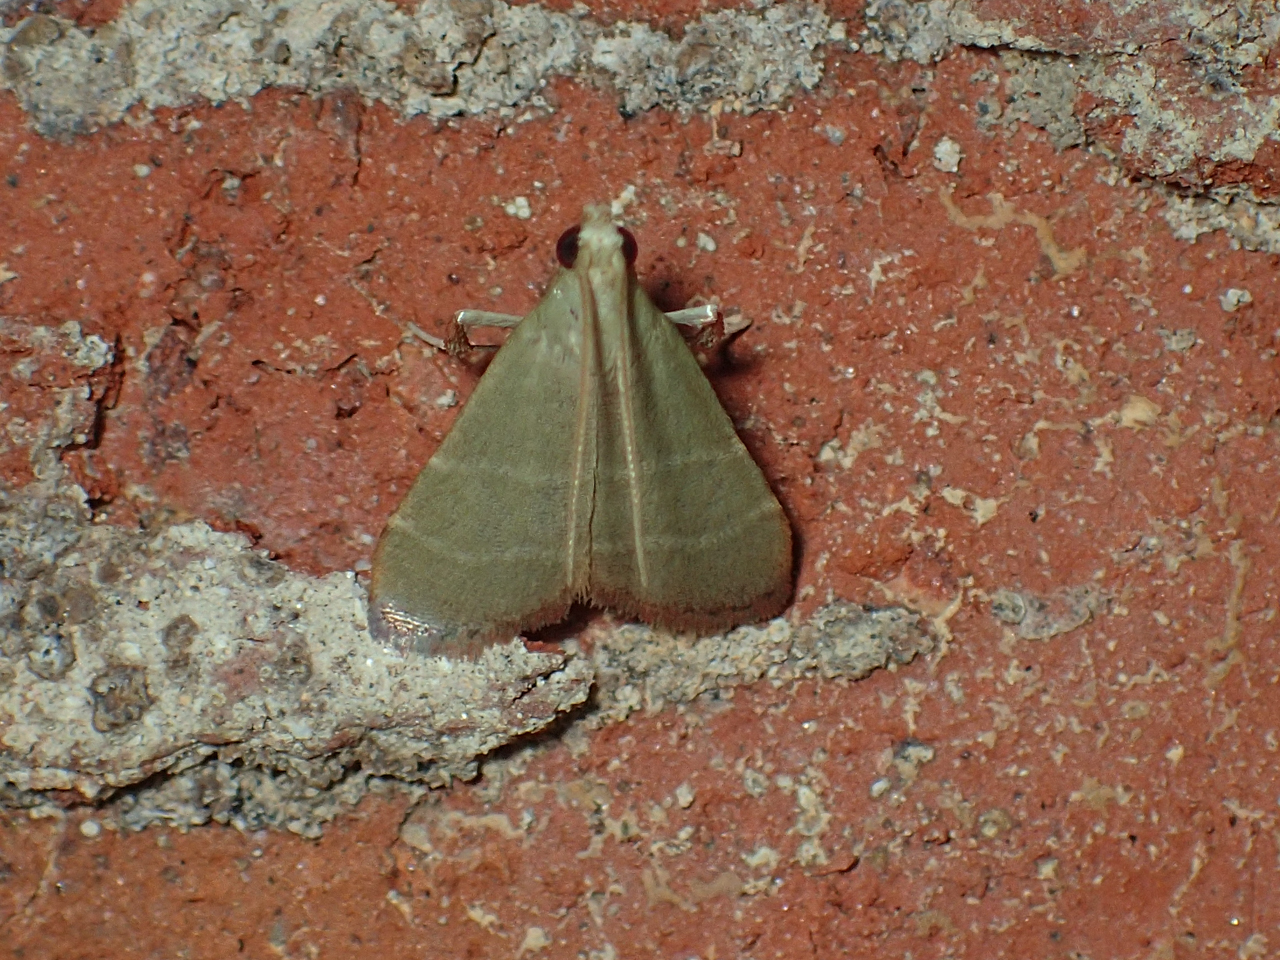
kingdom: Animalia
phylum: Arthropoda
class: Insecta
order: Lepidoptera
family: Pyralidae
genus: Arta
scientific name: Arta olivalis
